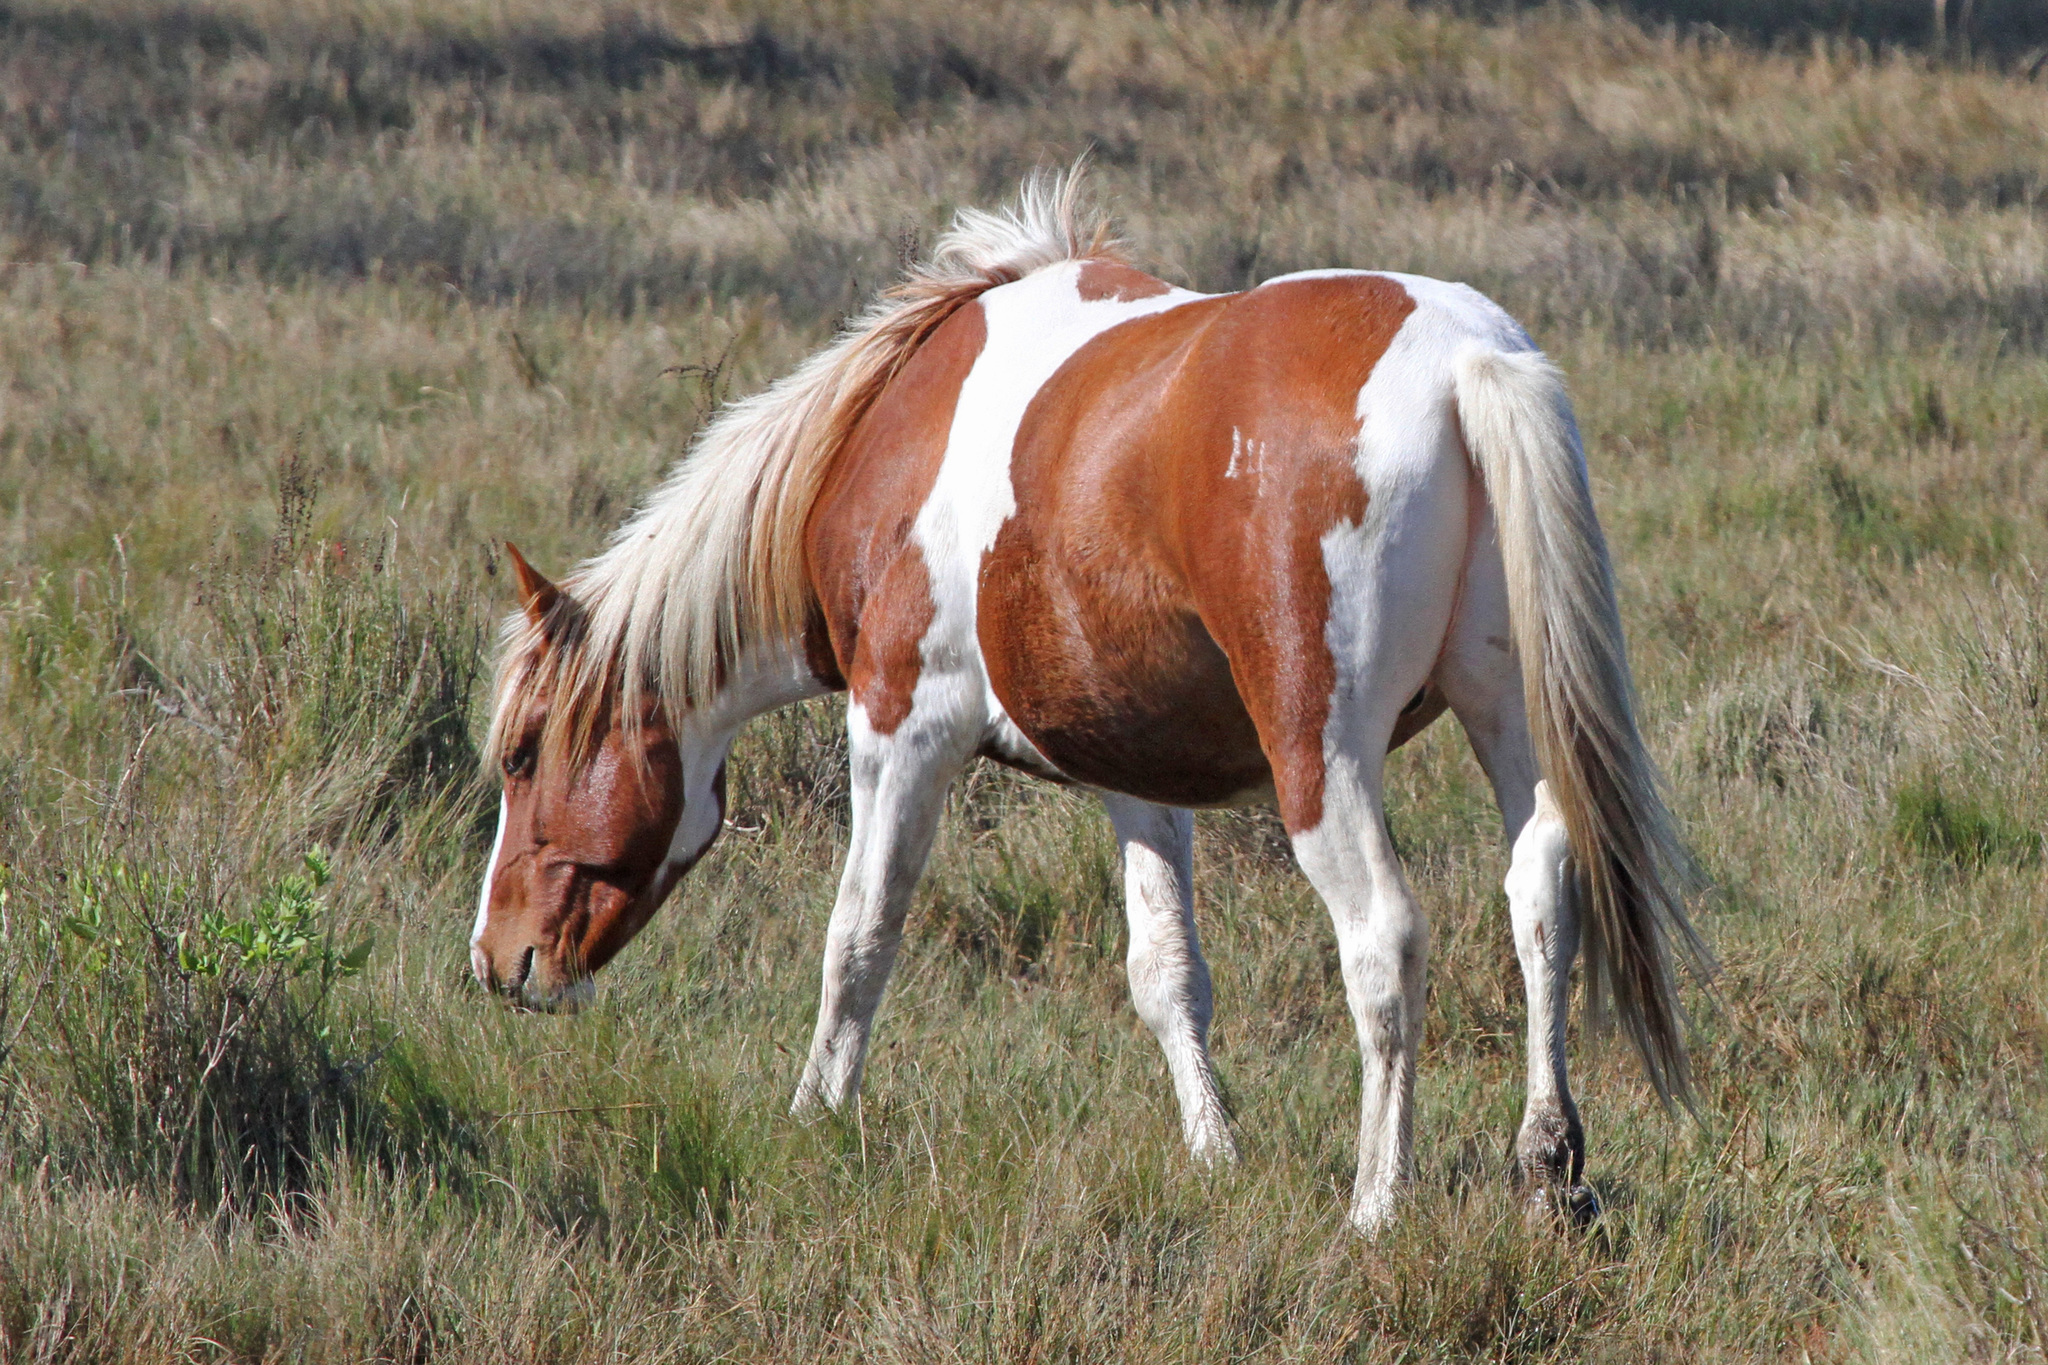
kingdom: Animalia
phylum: Chordata
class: Mammalia
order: Perissodactyla
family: Equidae
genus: Equus
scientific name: Equus caballus
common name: Horse
